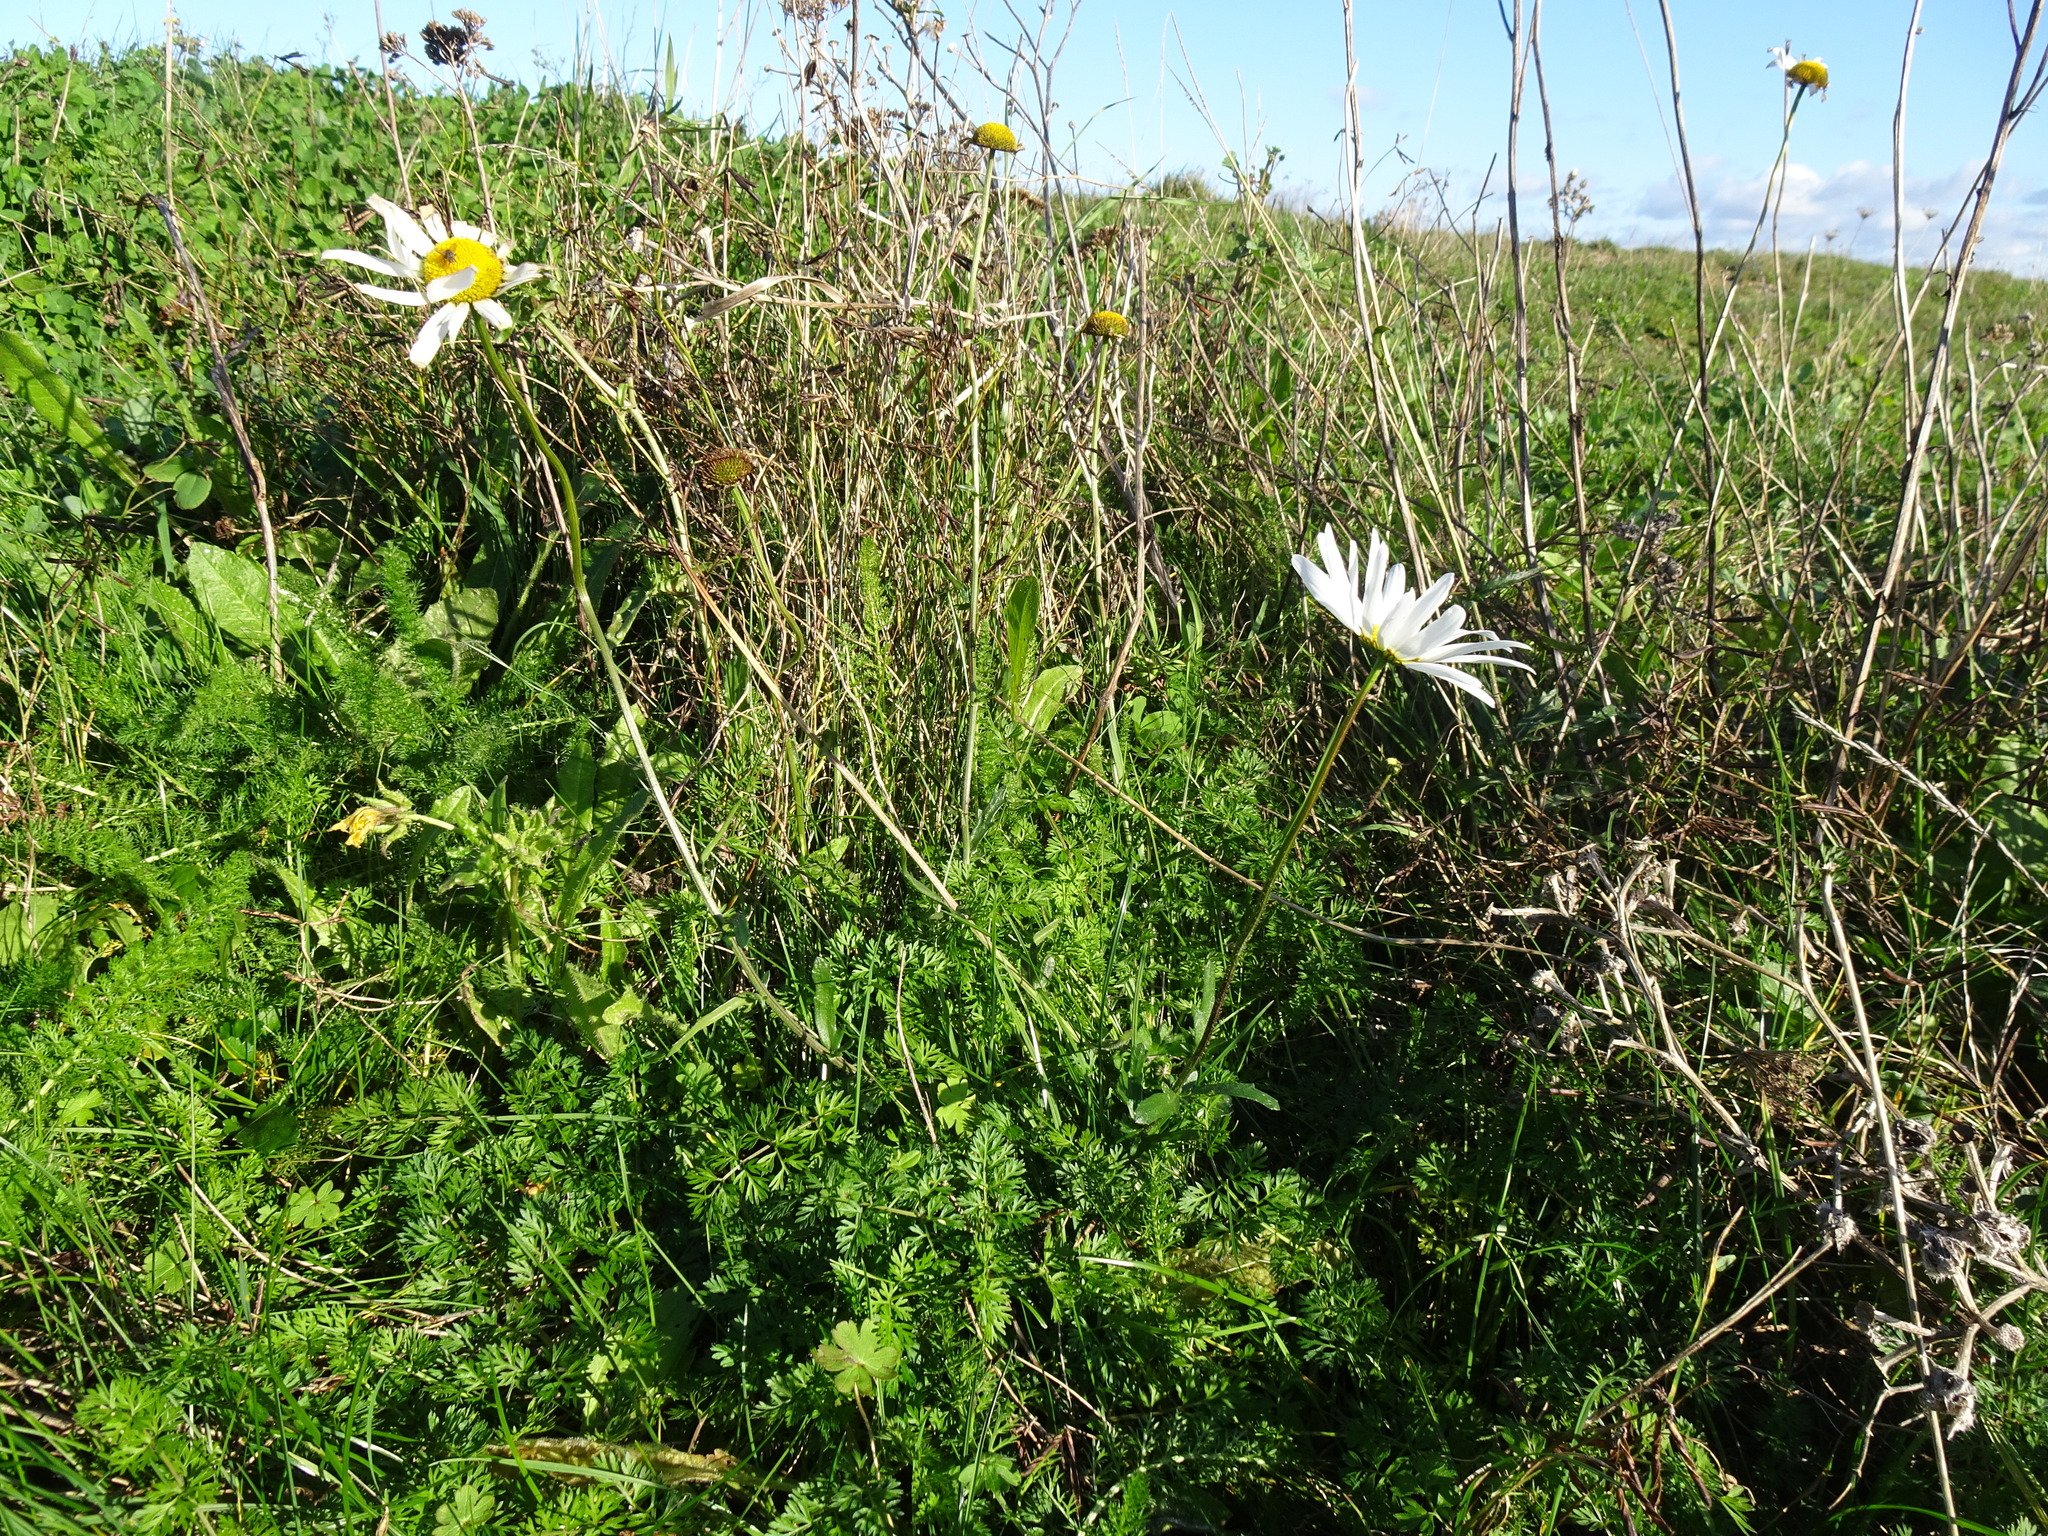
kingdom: Plantae
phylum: Tracheophyta
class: Magnoliopsida
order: Asterales
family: Asteraceae
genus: Leucanthemum
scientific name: Leucanthemum vulgare
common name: Oxeye daisy
